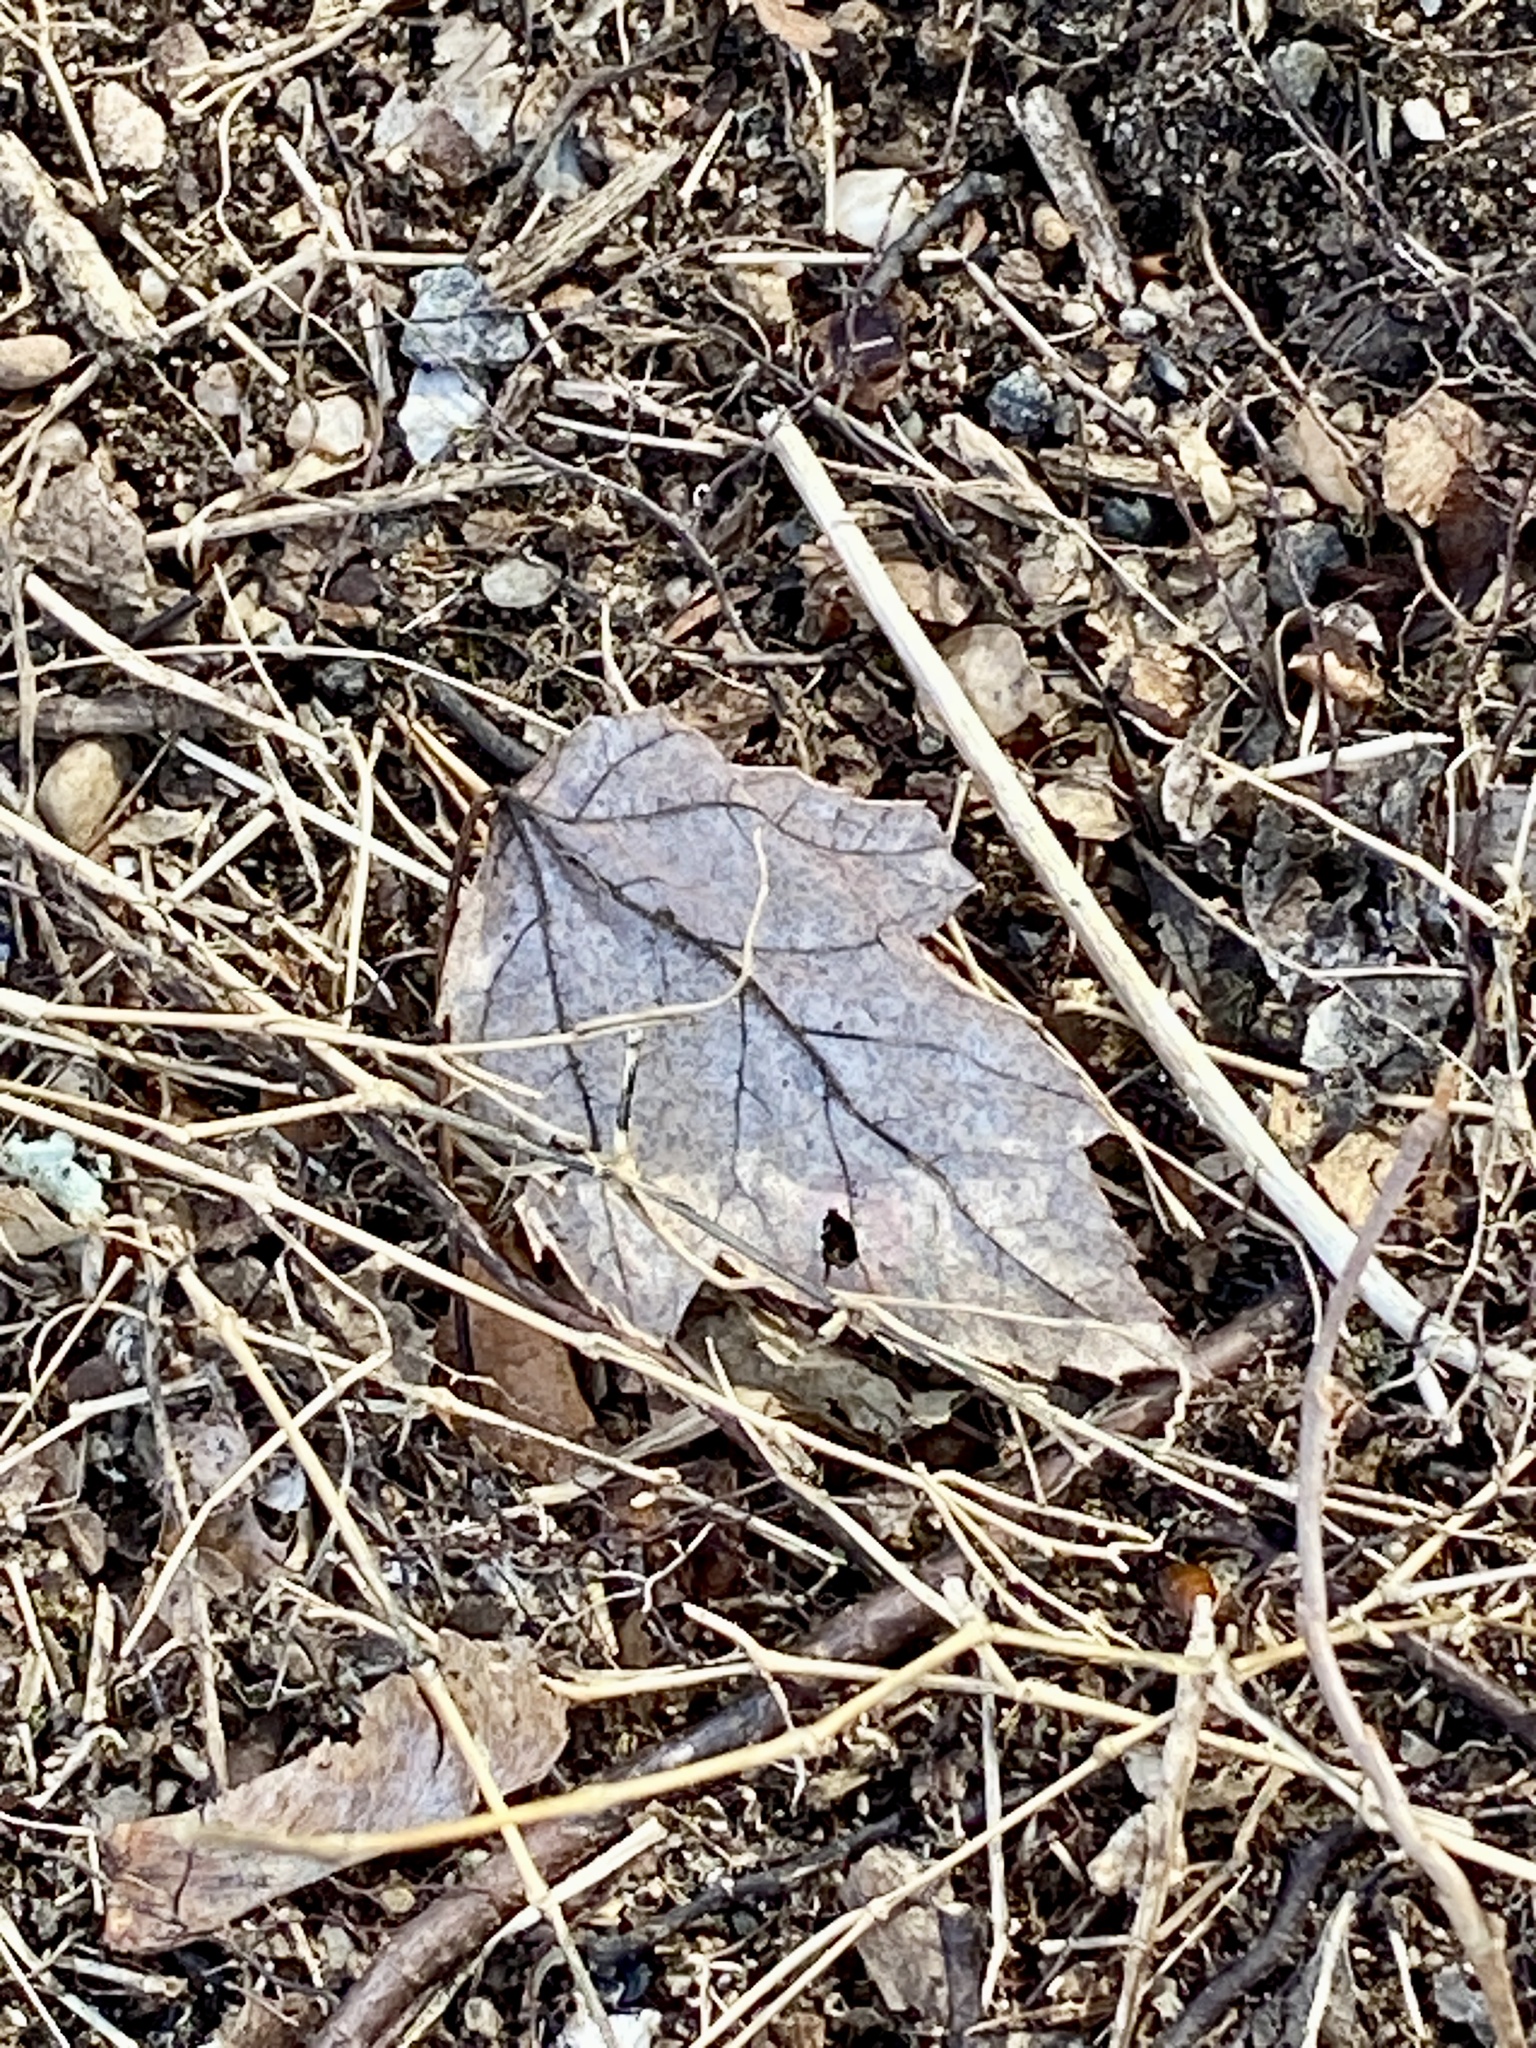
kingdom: Plantae
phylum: Tracheophyta
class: Magnoliopsida
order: Sapindales
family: Sapindaceae
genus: Acer
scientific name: Acer rubrum
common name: Red maple
